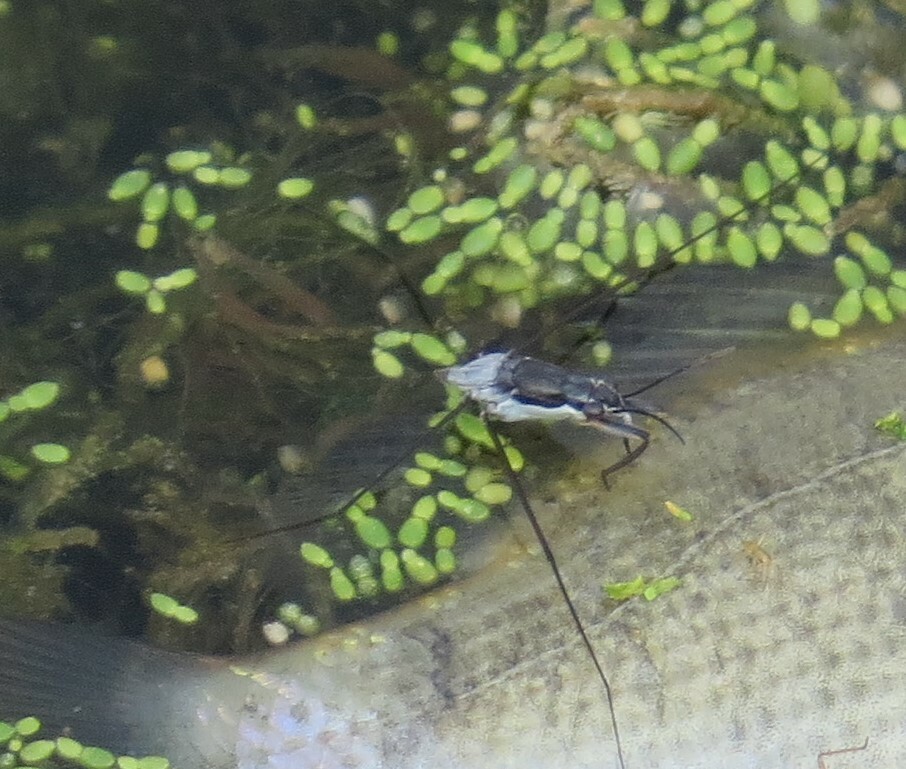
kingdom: Animalia
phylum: Arthropoda
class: Insecta
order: Hemiptera
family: Gerridae
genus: Neogerris
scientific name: Neogerris hesione
